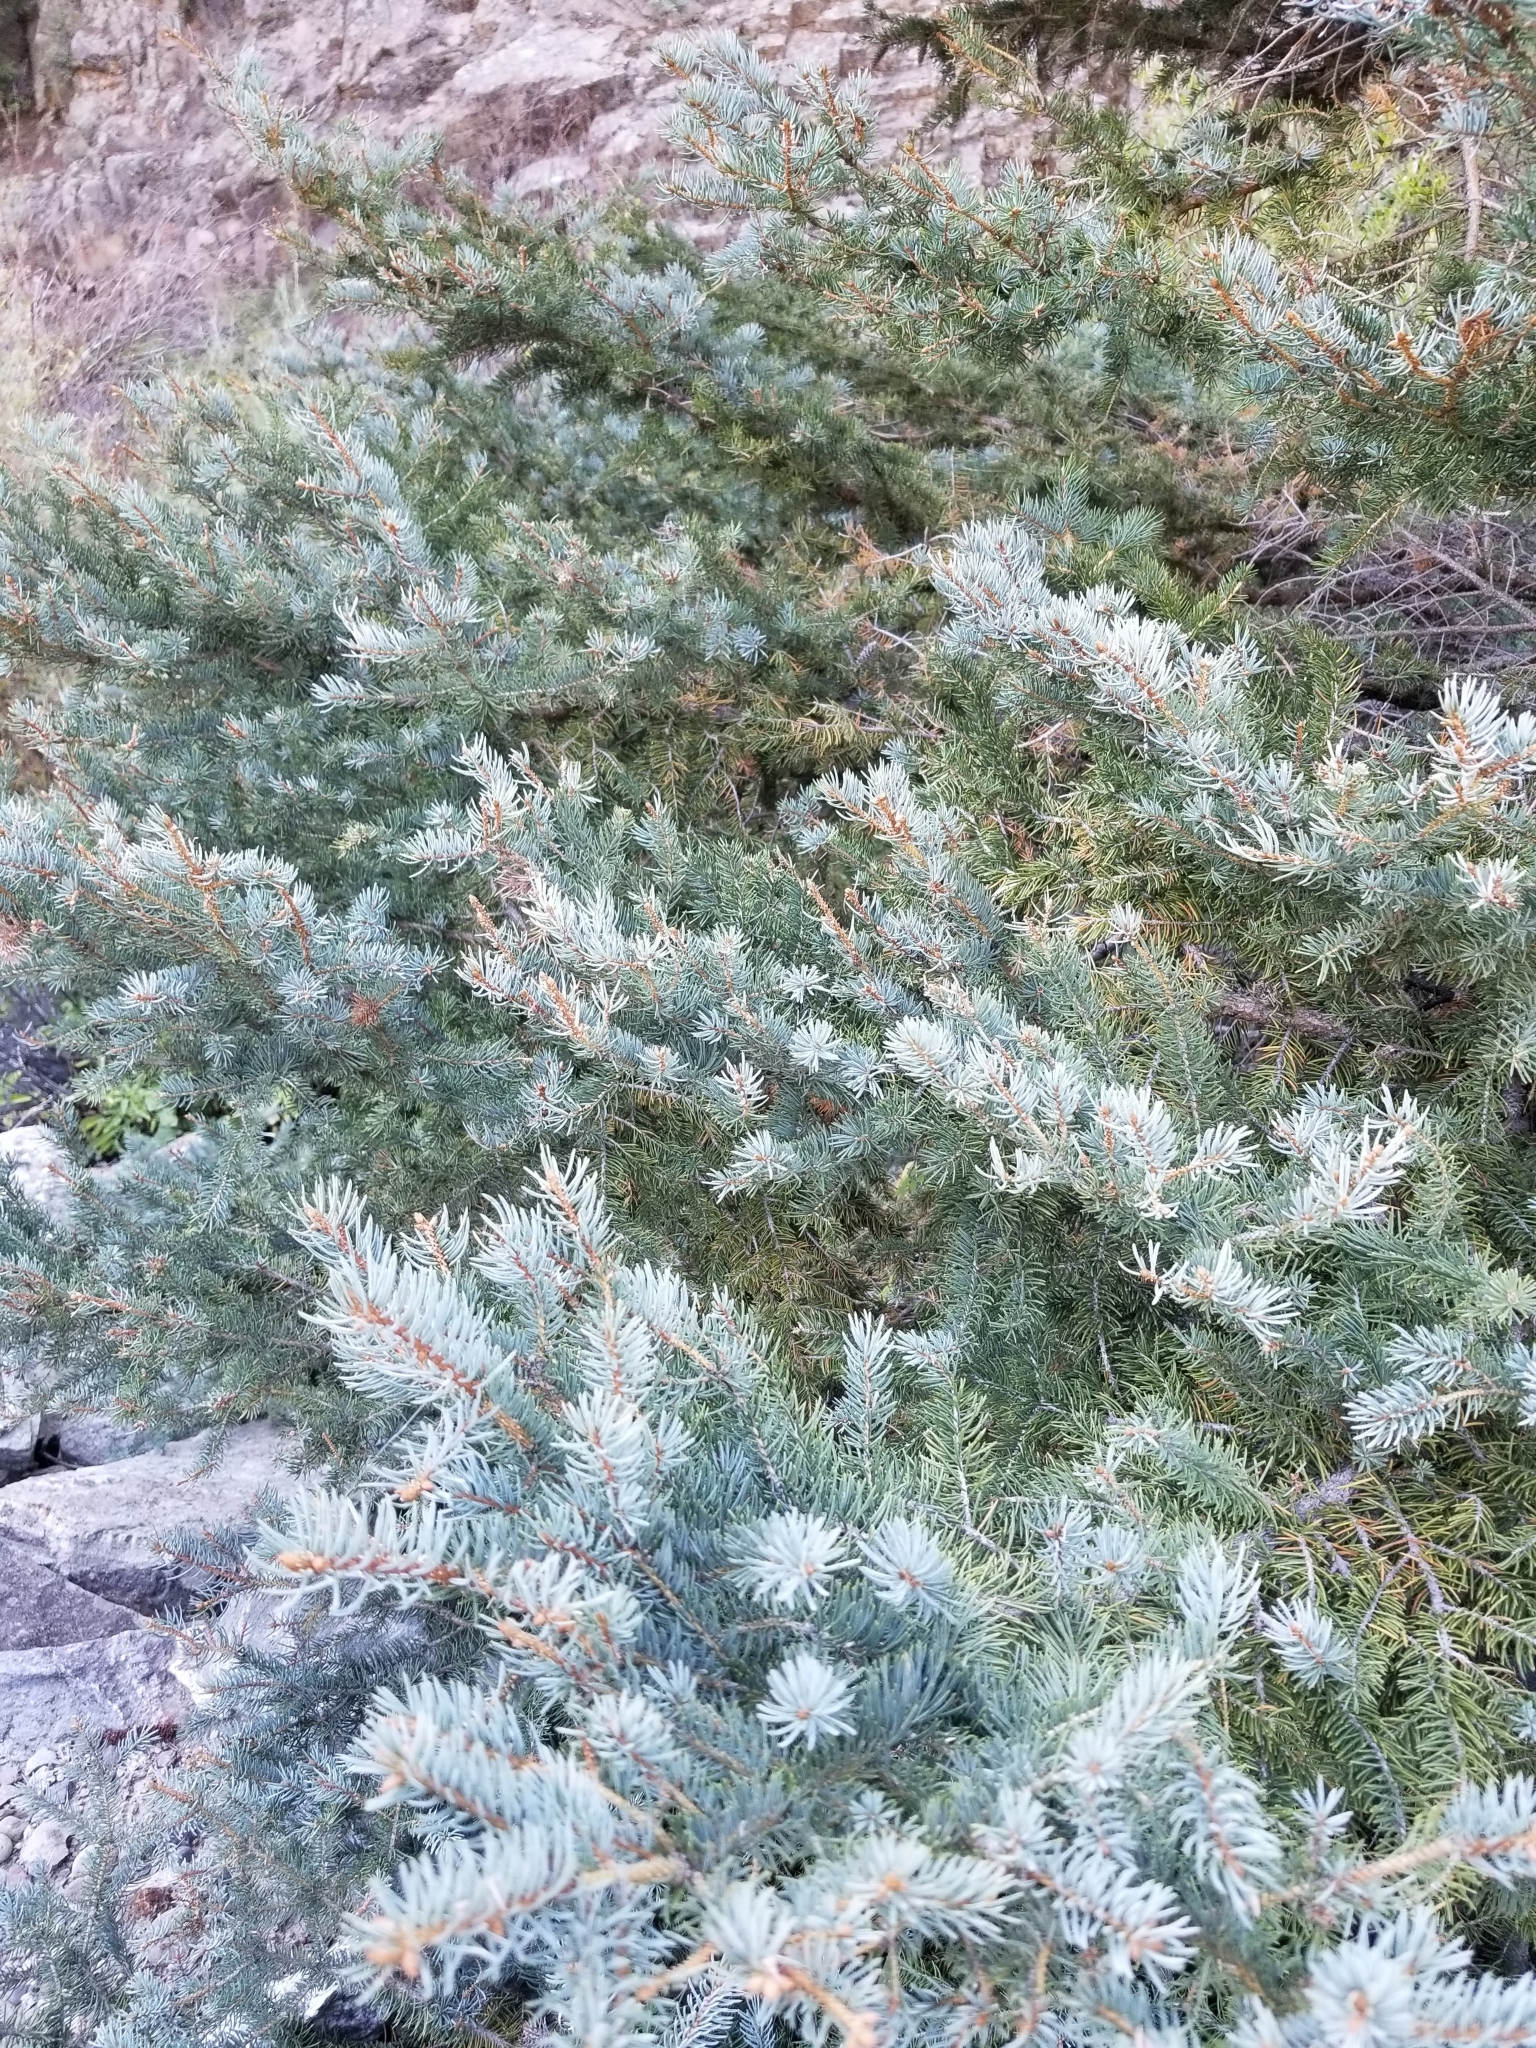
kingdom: Plantae
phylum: Tracheophyta
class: Pinopsida
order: Pinales
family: Pinaceae
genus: Picea
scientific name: Picea pungens
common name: Colorado spruce
